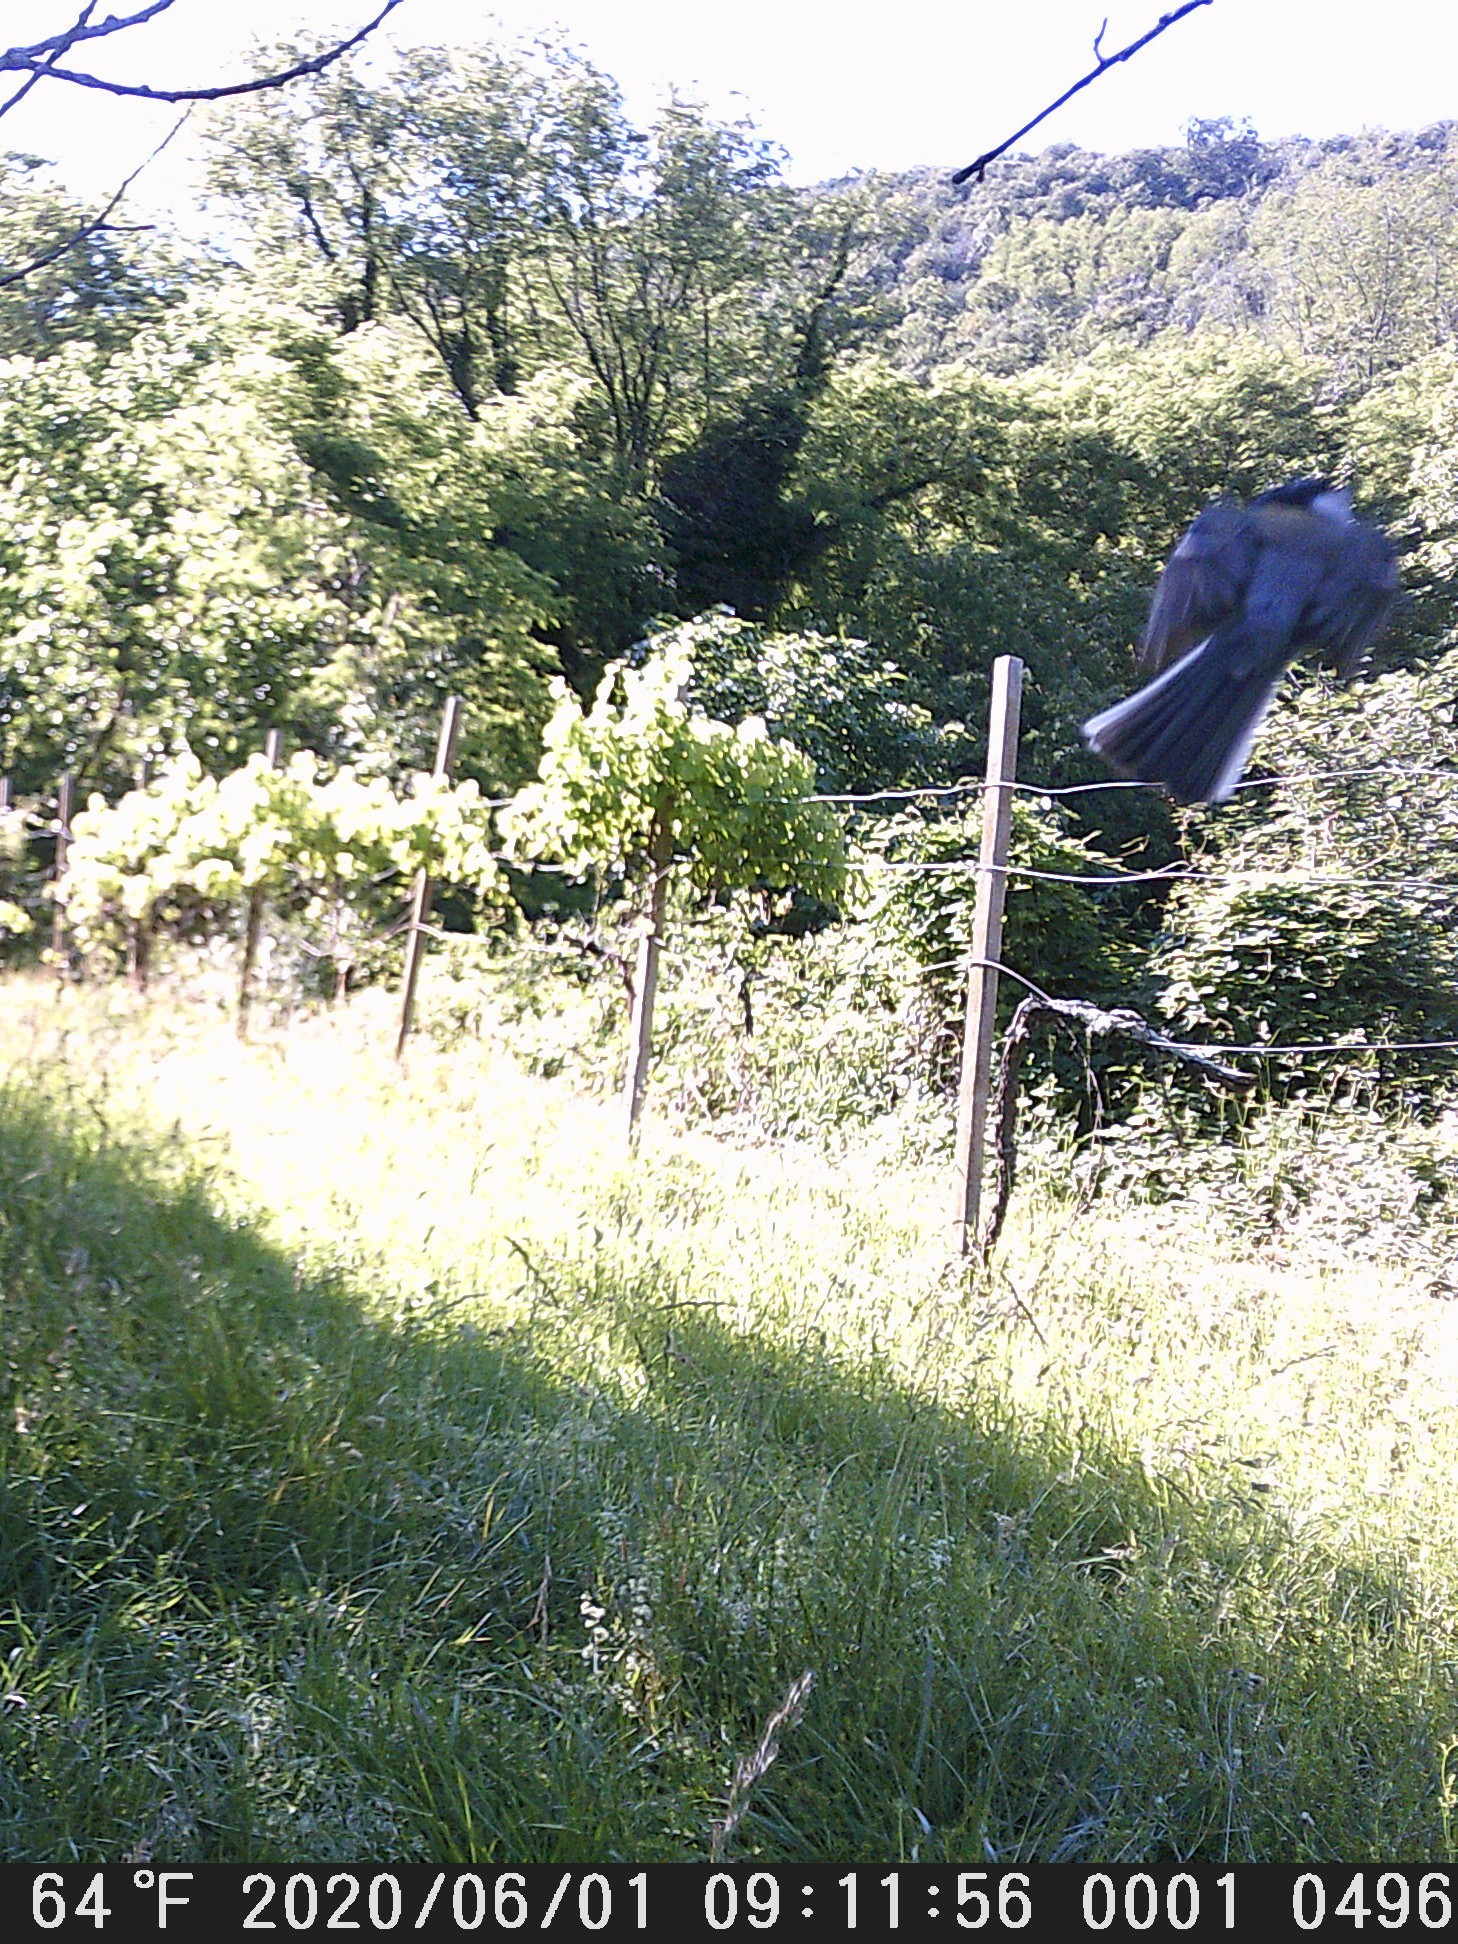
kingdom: Animalia
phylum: Chordata
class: Aves
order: Passeriformes
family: Paridae
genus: Parus
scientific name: Parus major
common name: Great tit
